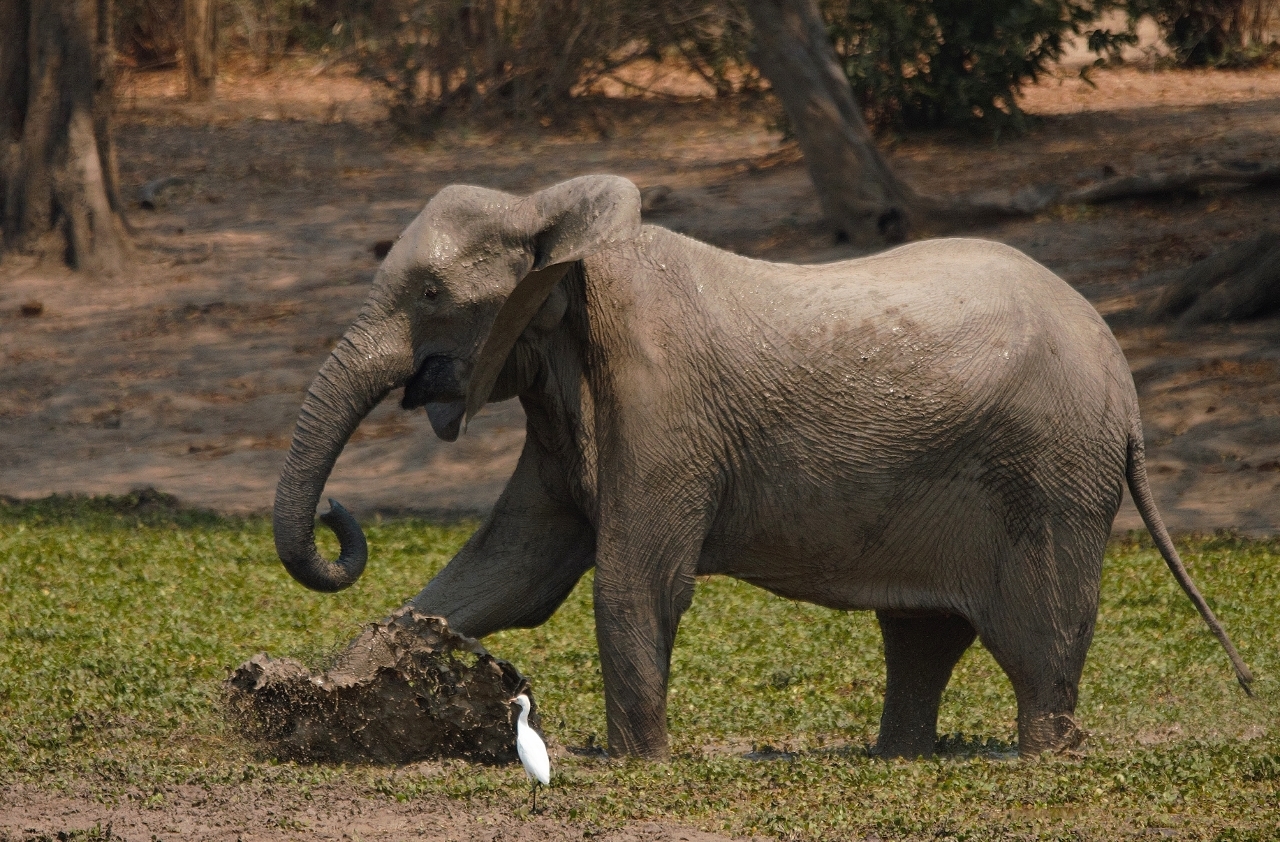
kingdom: Animalia
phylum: Chordata
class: Mammalia
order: Proboscidea
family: Elephantidae
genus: Loxodonta
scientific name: Loxodonta africana
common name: African elephant
